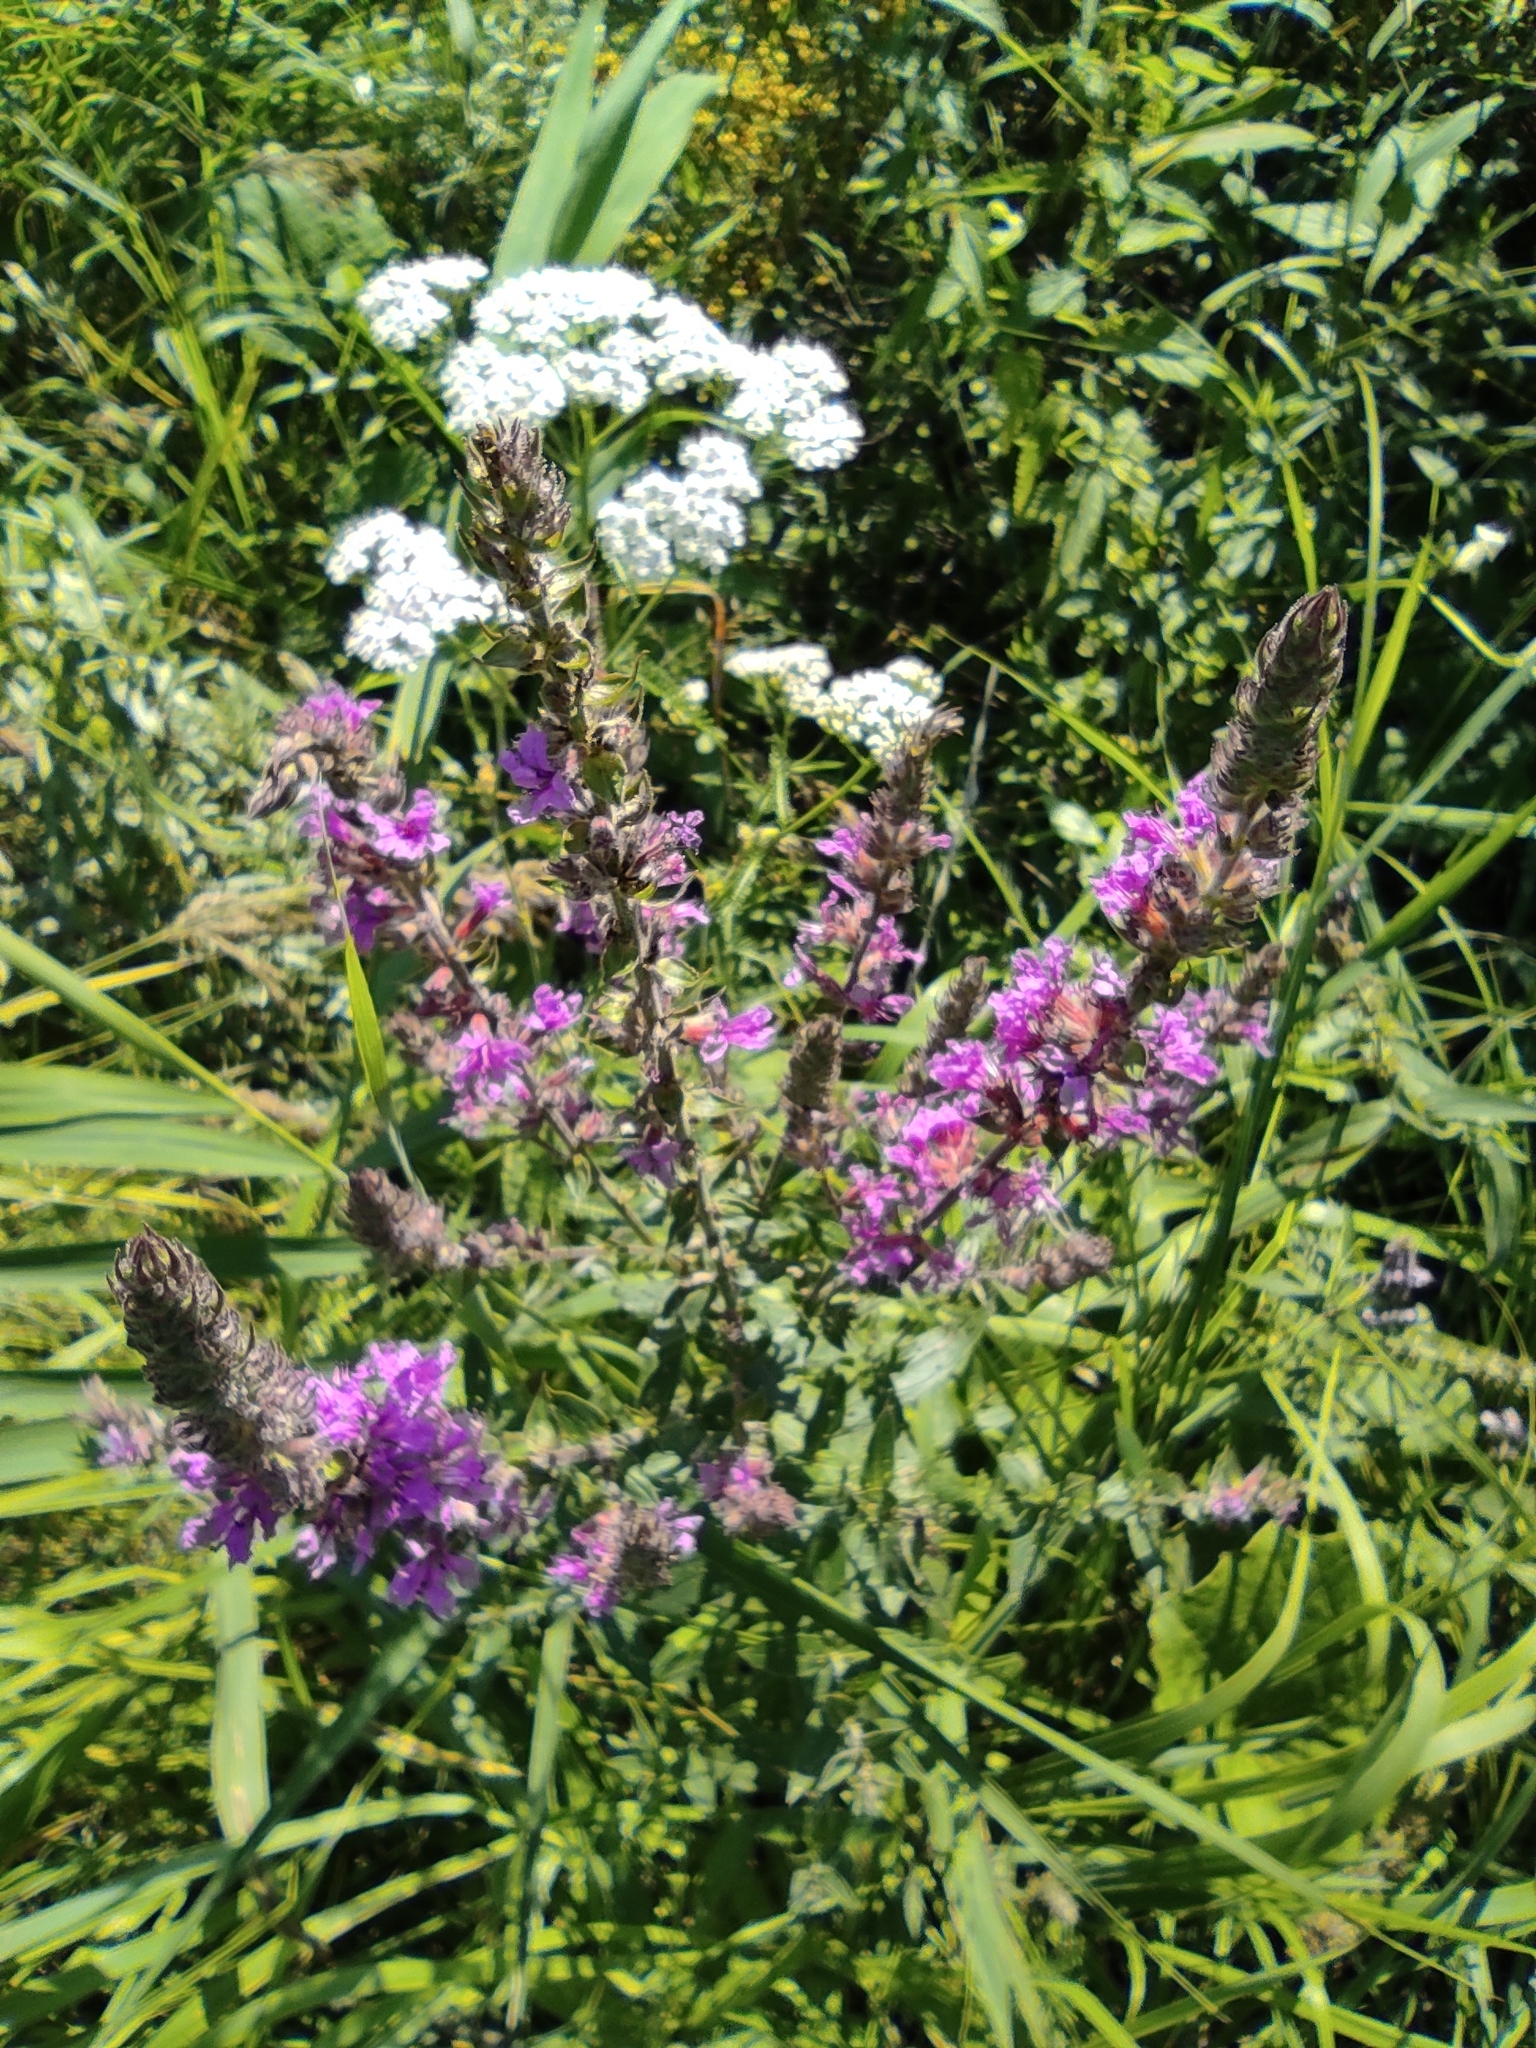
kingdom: Plantae
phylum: Tracheophyta
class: Magnoliopsida
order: Myrtales
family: Lythraceae
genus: Lythrum
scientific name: Lythrum salicaria
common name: Purple loosestrife
